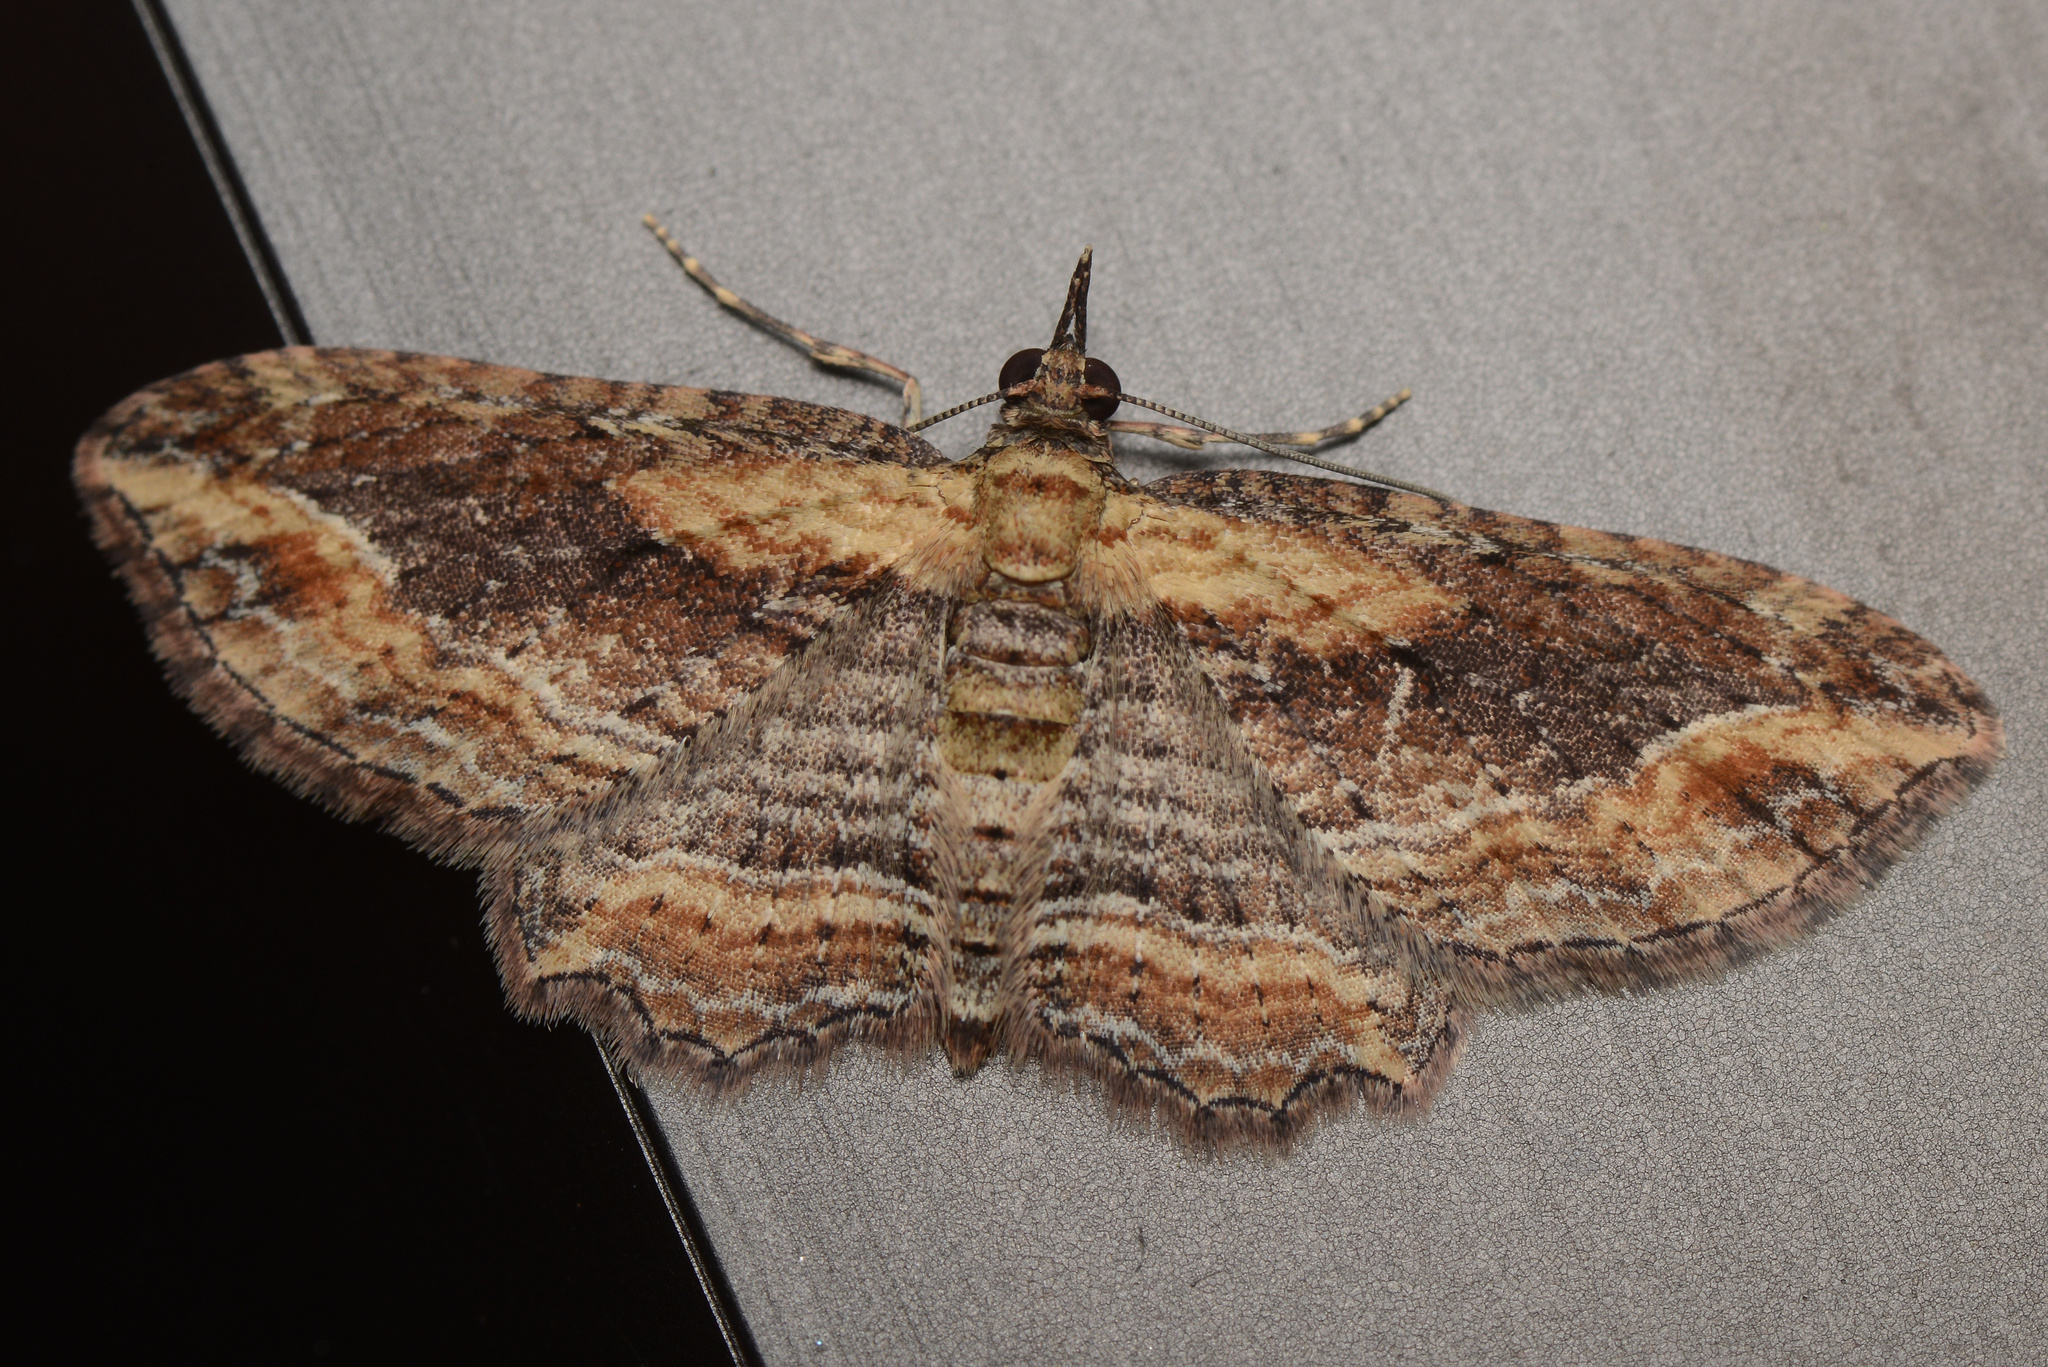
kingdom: Animalia
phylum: Arthropoda
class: Insecta
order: Lepidoptera
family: Geometridae
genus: Chloroclystis
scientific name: Chloroclystis filata
